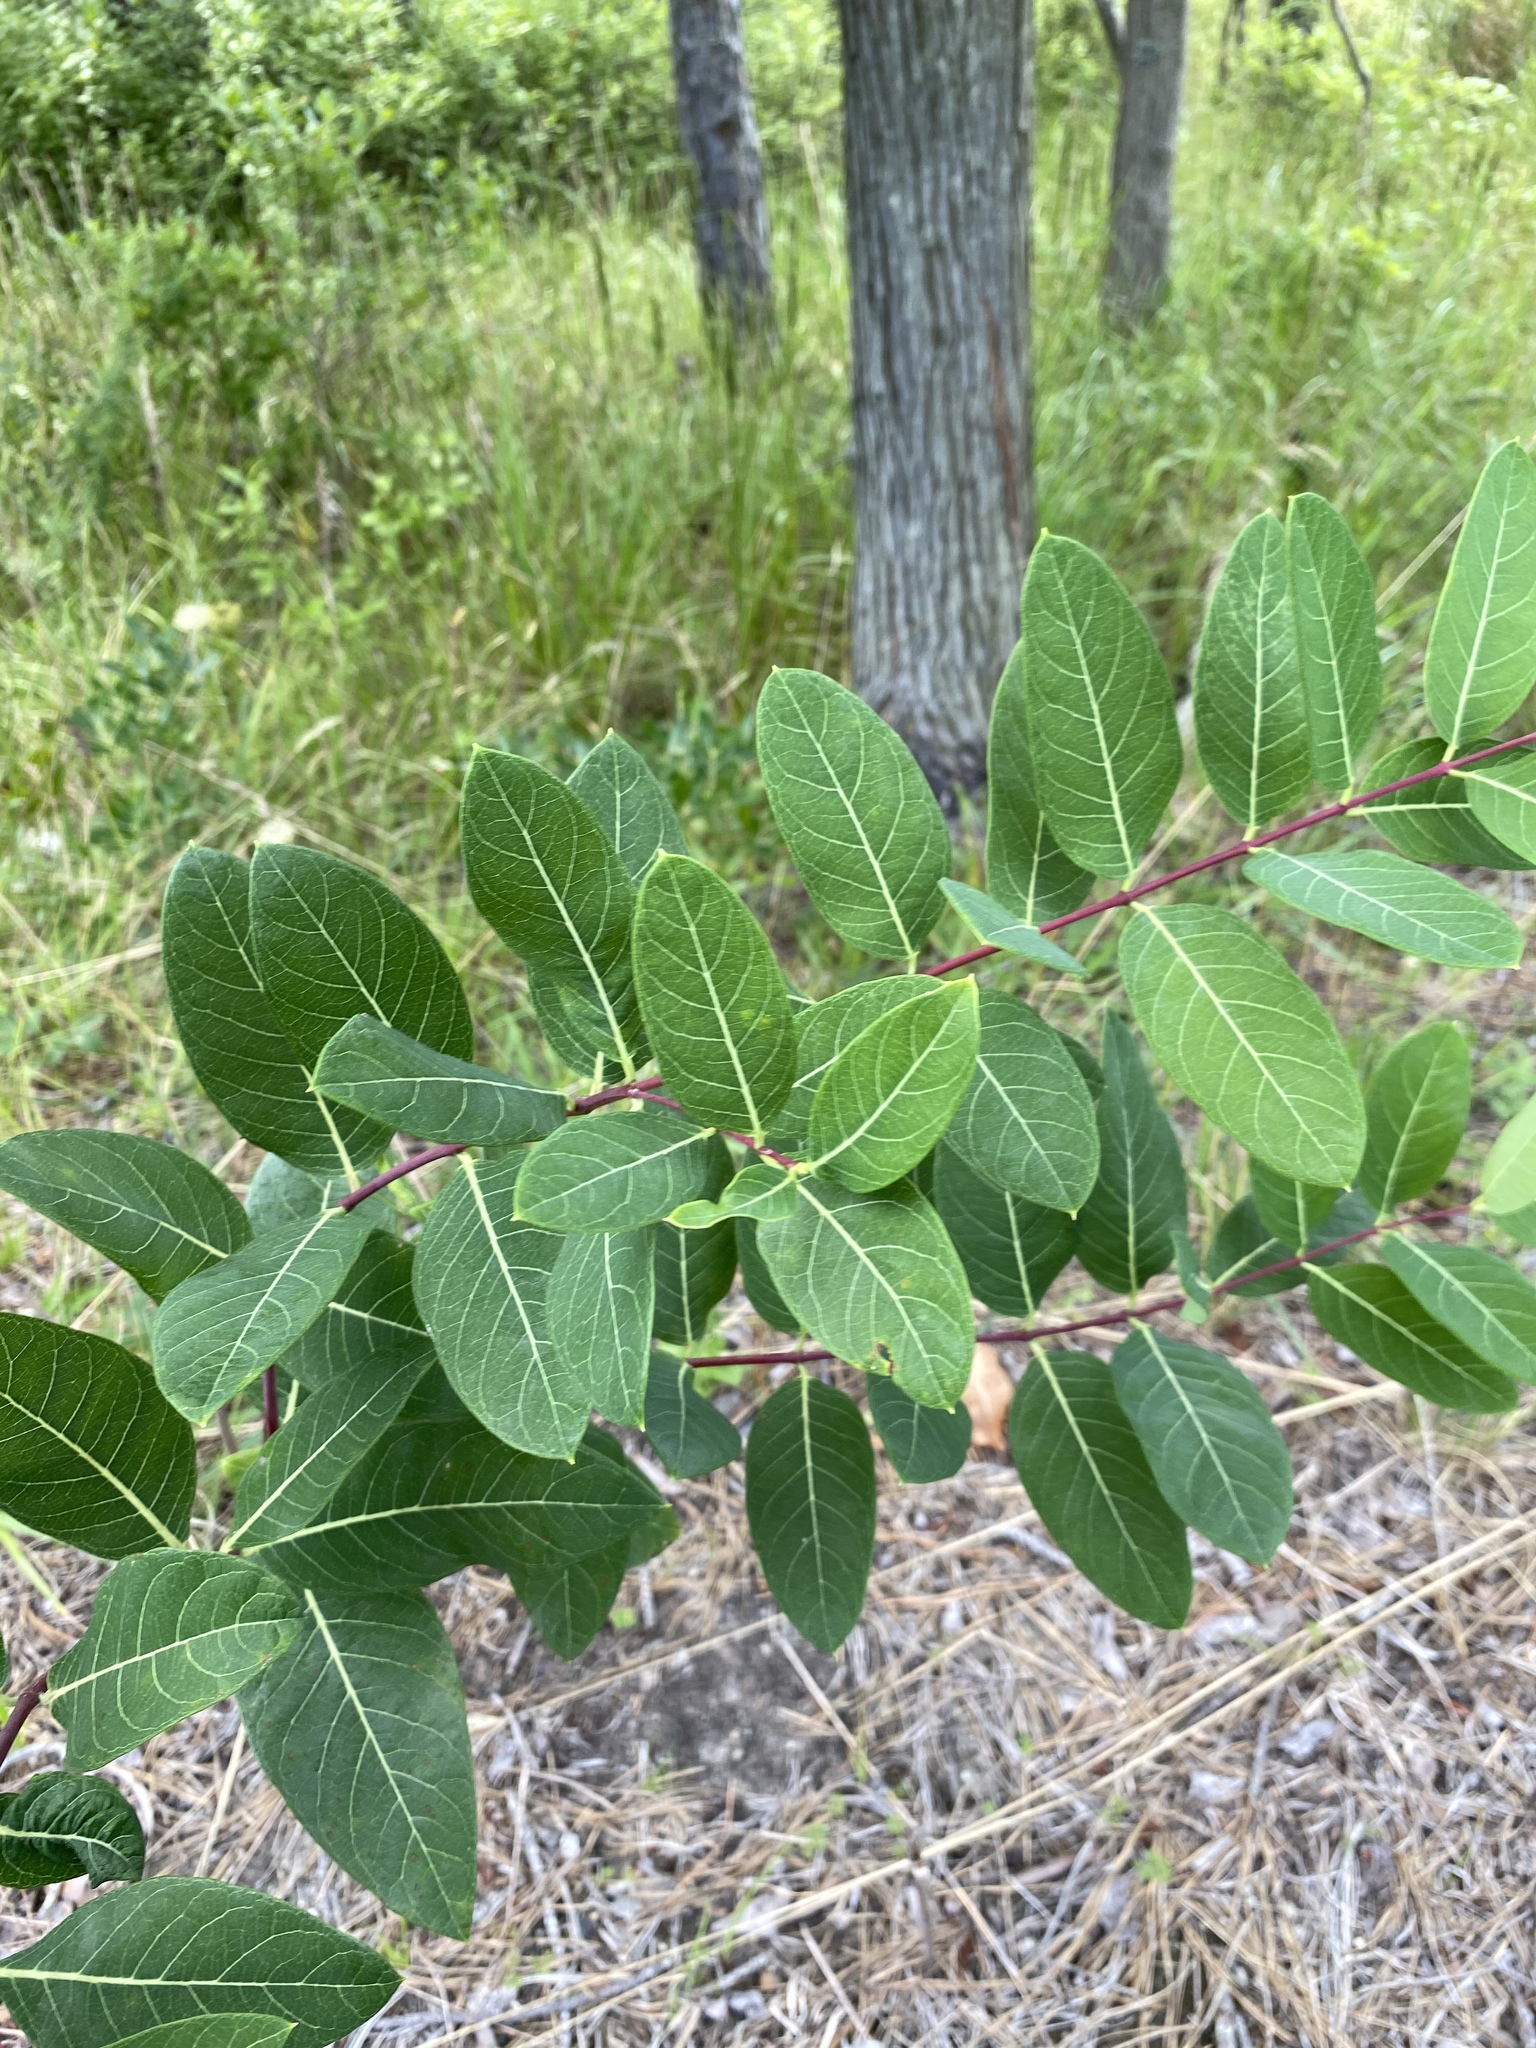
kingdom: Plantae
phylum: Tracheophyta
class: Magnoliopsida
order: Gentianales
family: Apocynaceae
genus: Apocynum
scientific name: Apocynum cannabinum
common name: Hemp dogbane
